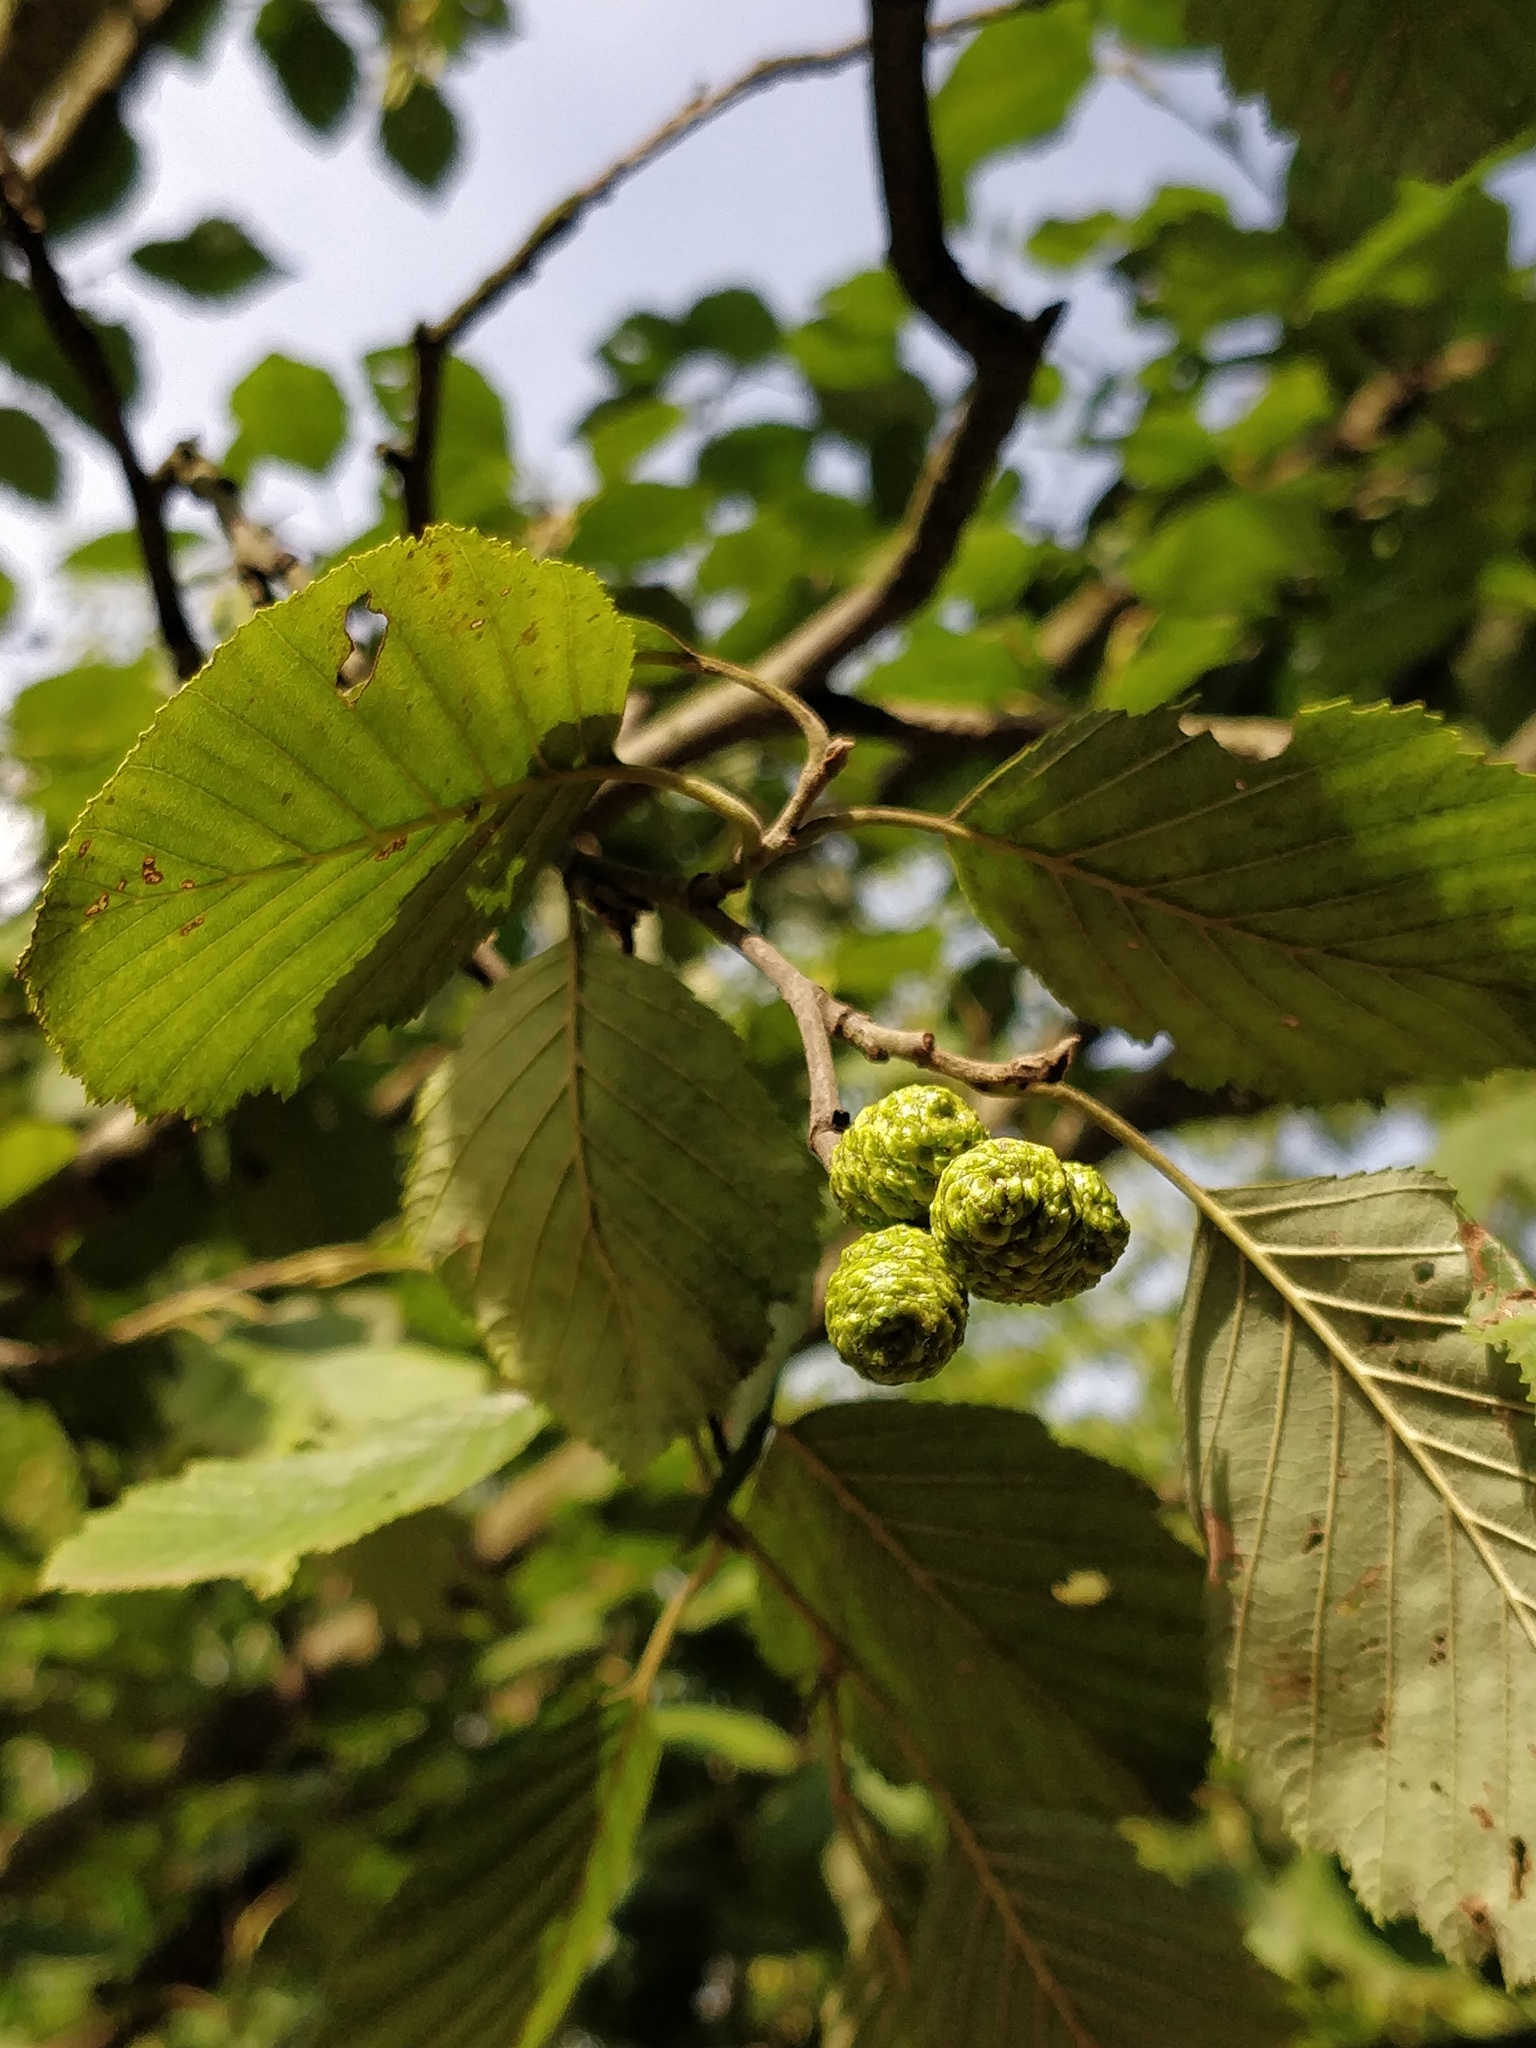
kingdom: Plantae
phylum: Tracheophyta
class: Magnoliopsida
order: Fagales
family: Betulaceae
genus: Alnus
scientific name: Alnus incana
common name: Grey alder
